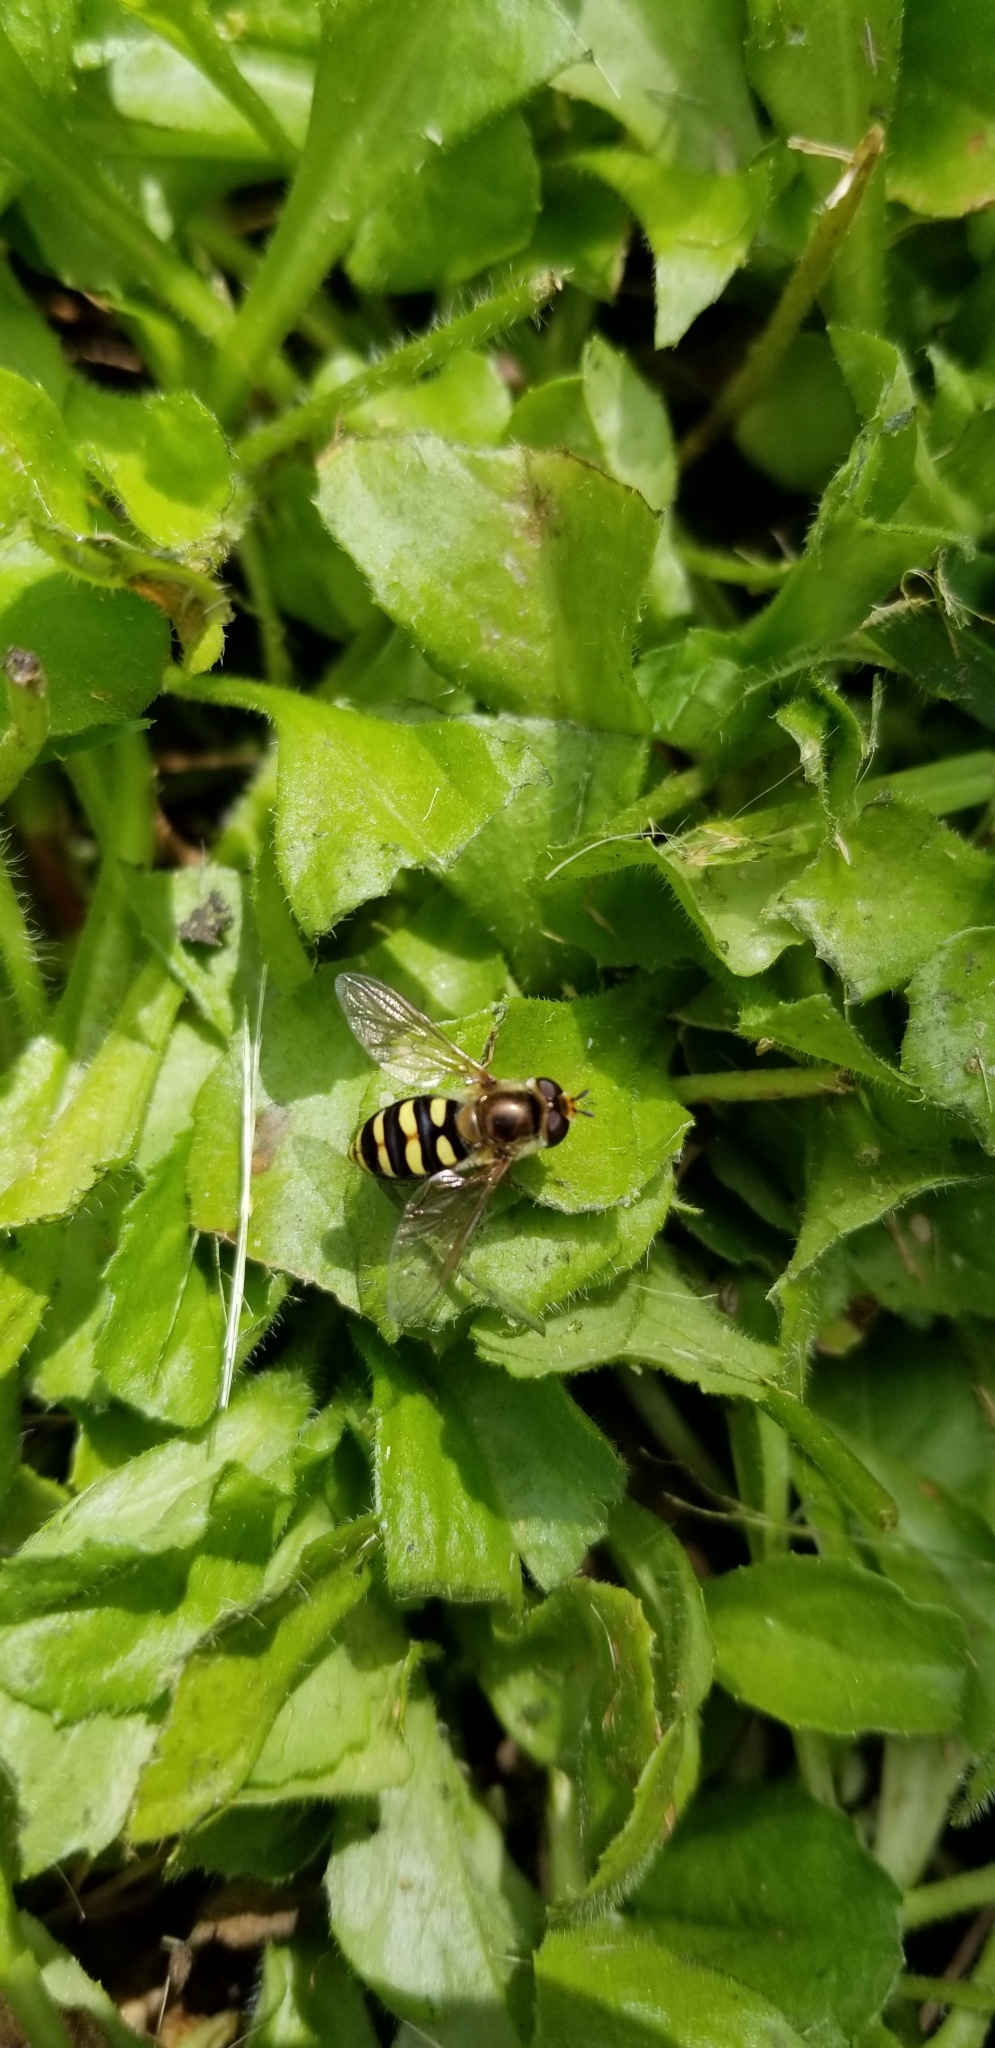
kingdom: Animalia
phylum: Arthropoda
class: Insecta
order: Diptera
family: Syrphidae
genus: Eupeodes
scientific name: Eupeodes fumipennis
